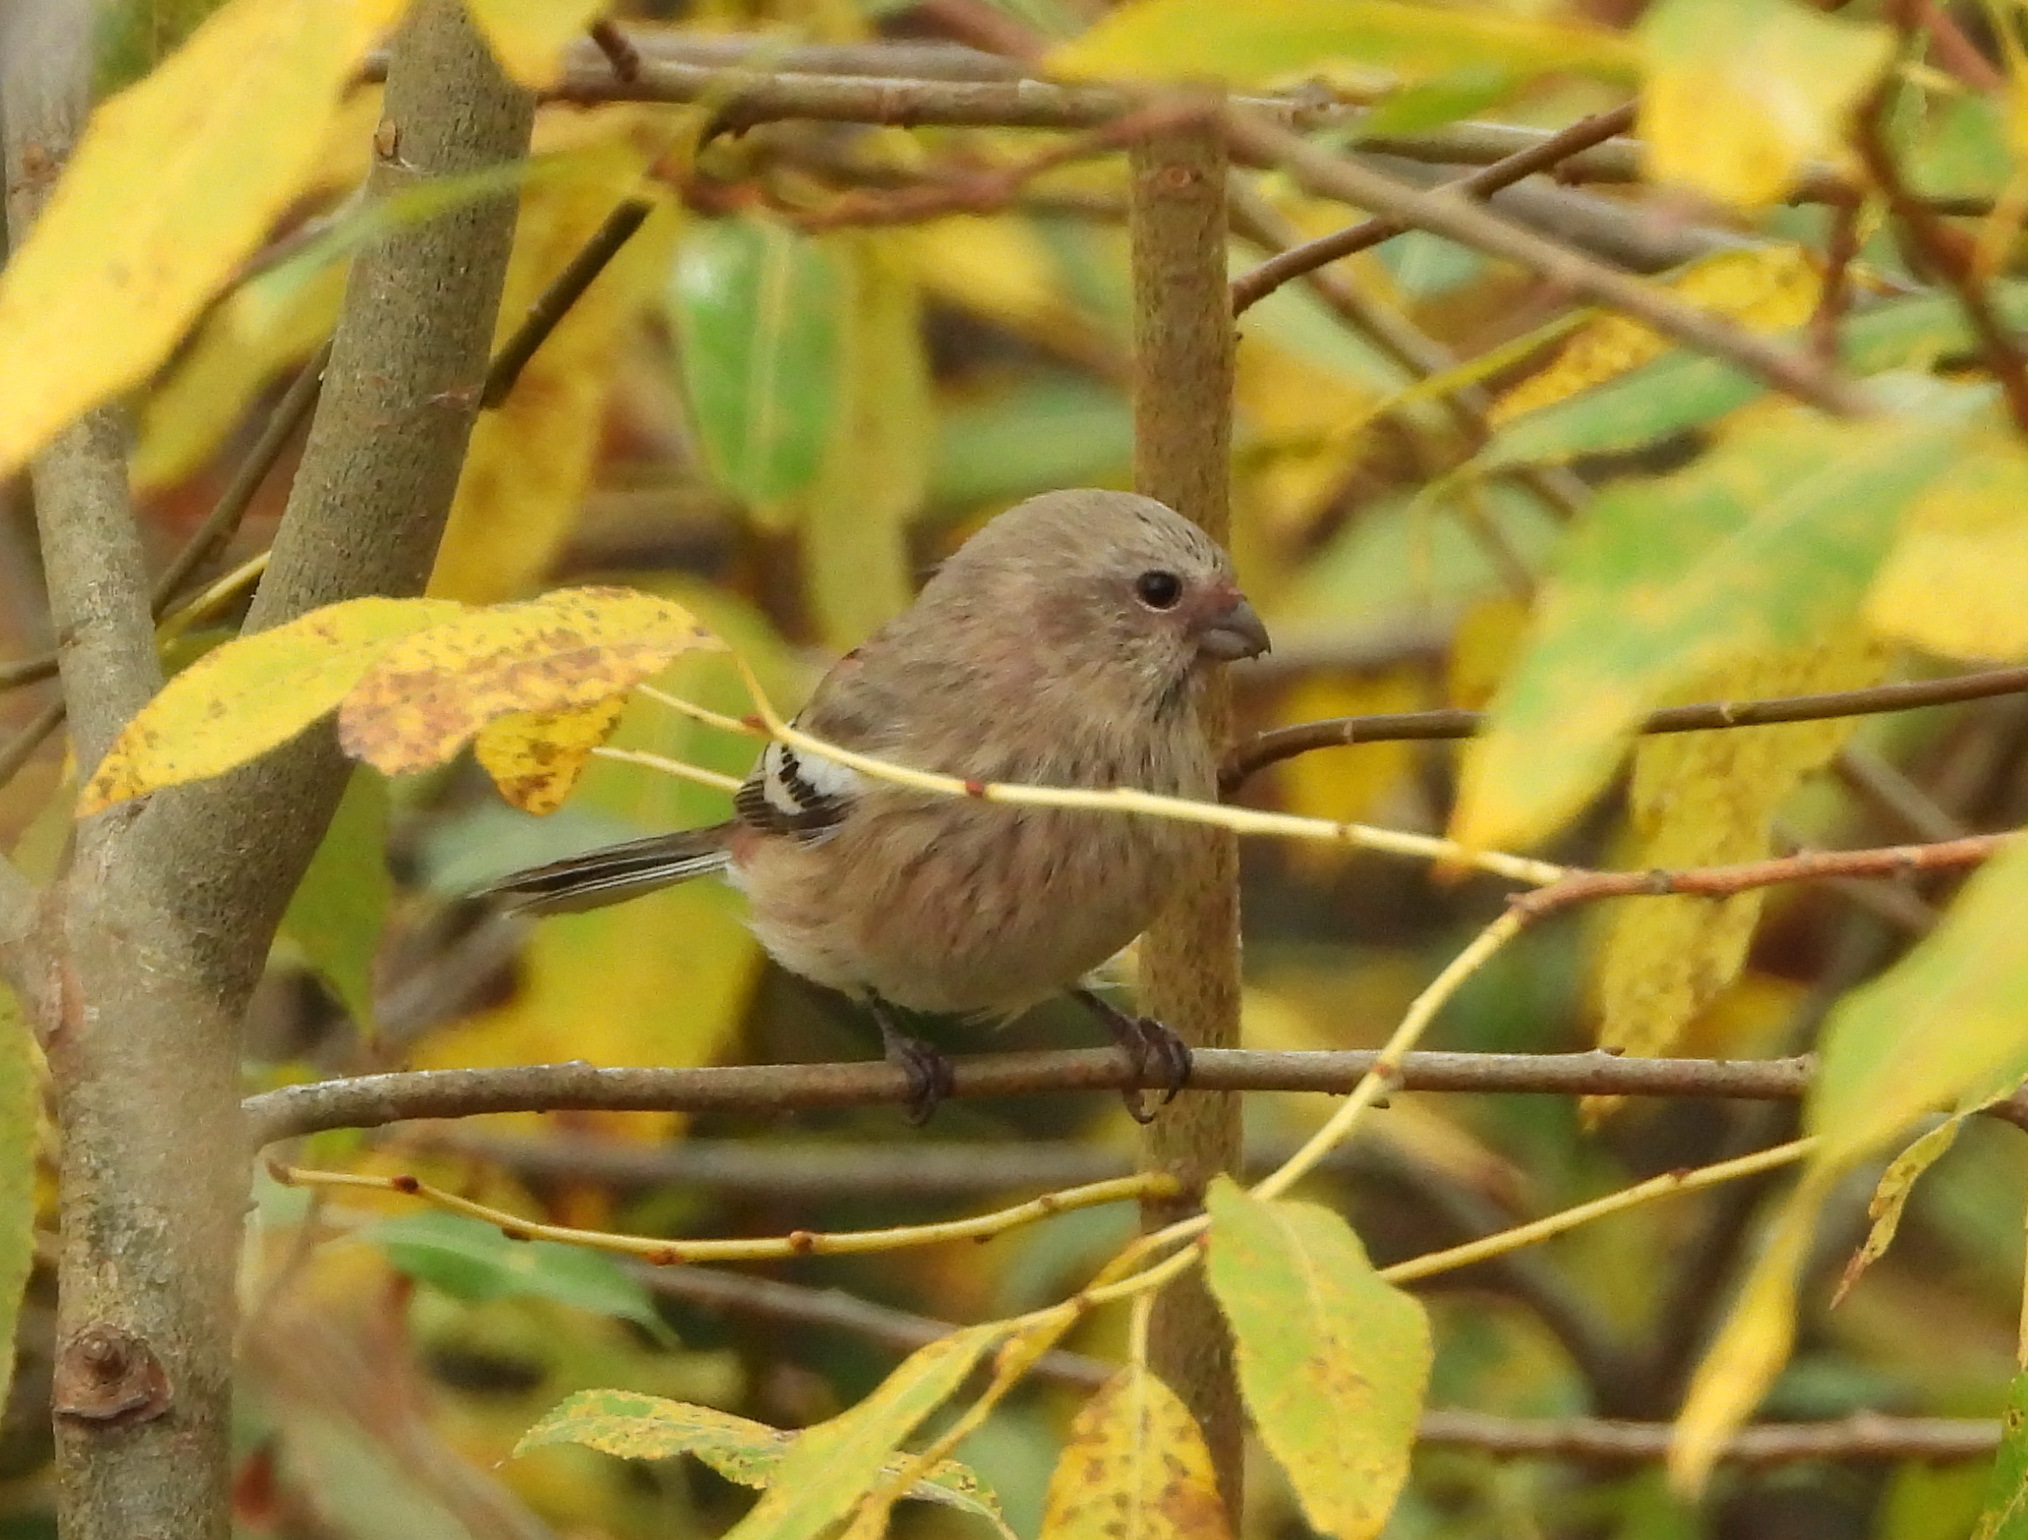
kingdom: Animalia
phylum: Chordata
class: Aves
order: Passeriformes
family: Fringillidae
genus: Carpodacus
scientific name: Carpodacus sibiricus
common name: Long-tailed rosefinch
